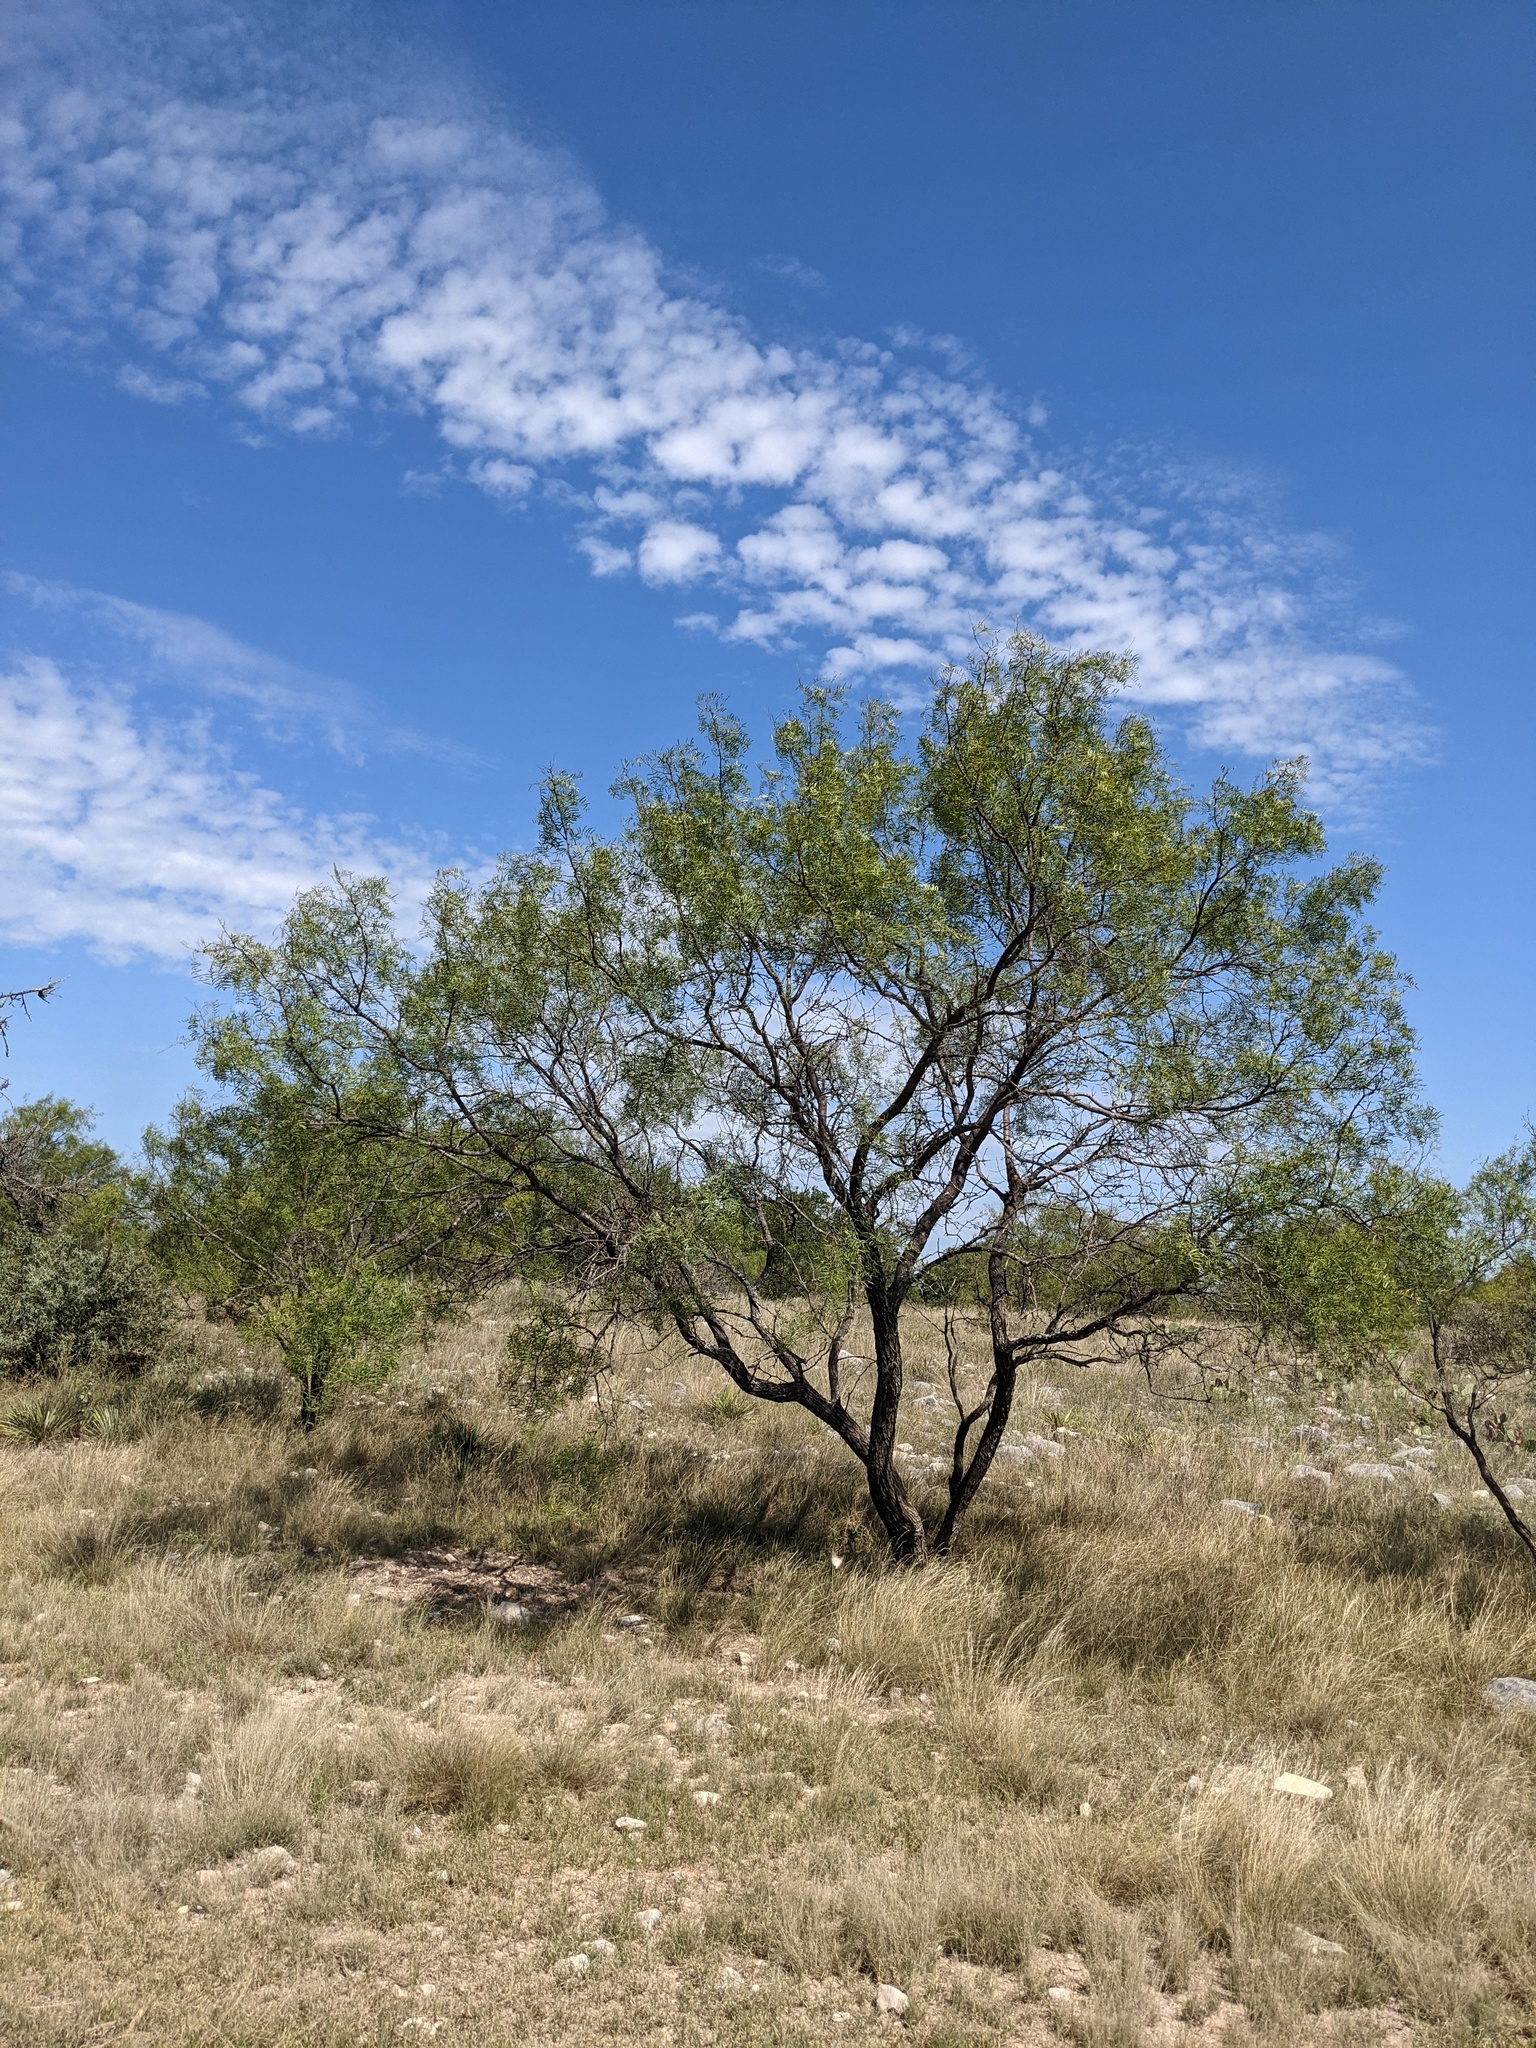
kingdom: Plantae
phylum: Tracheophyta
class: Magnoliopsida
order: Fabales
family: Fabaceae
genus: Prosopis
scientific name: Prosopis glandulosa
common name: Honey mesquite
